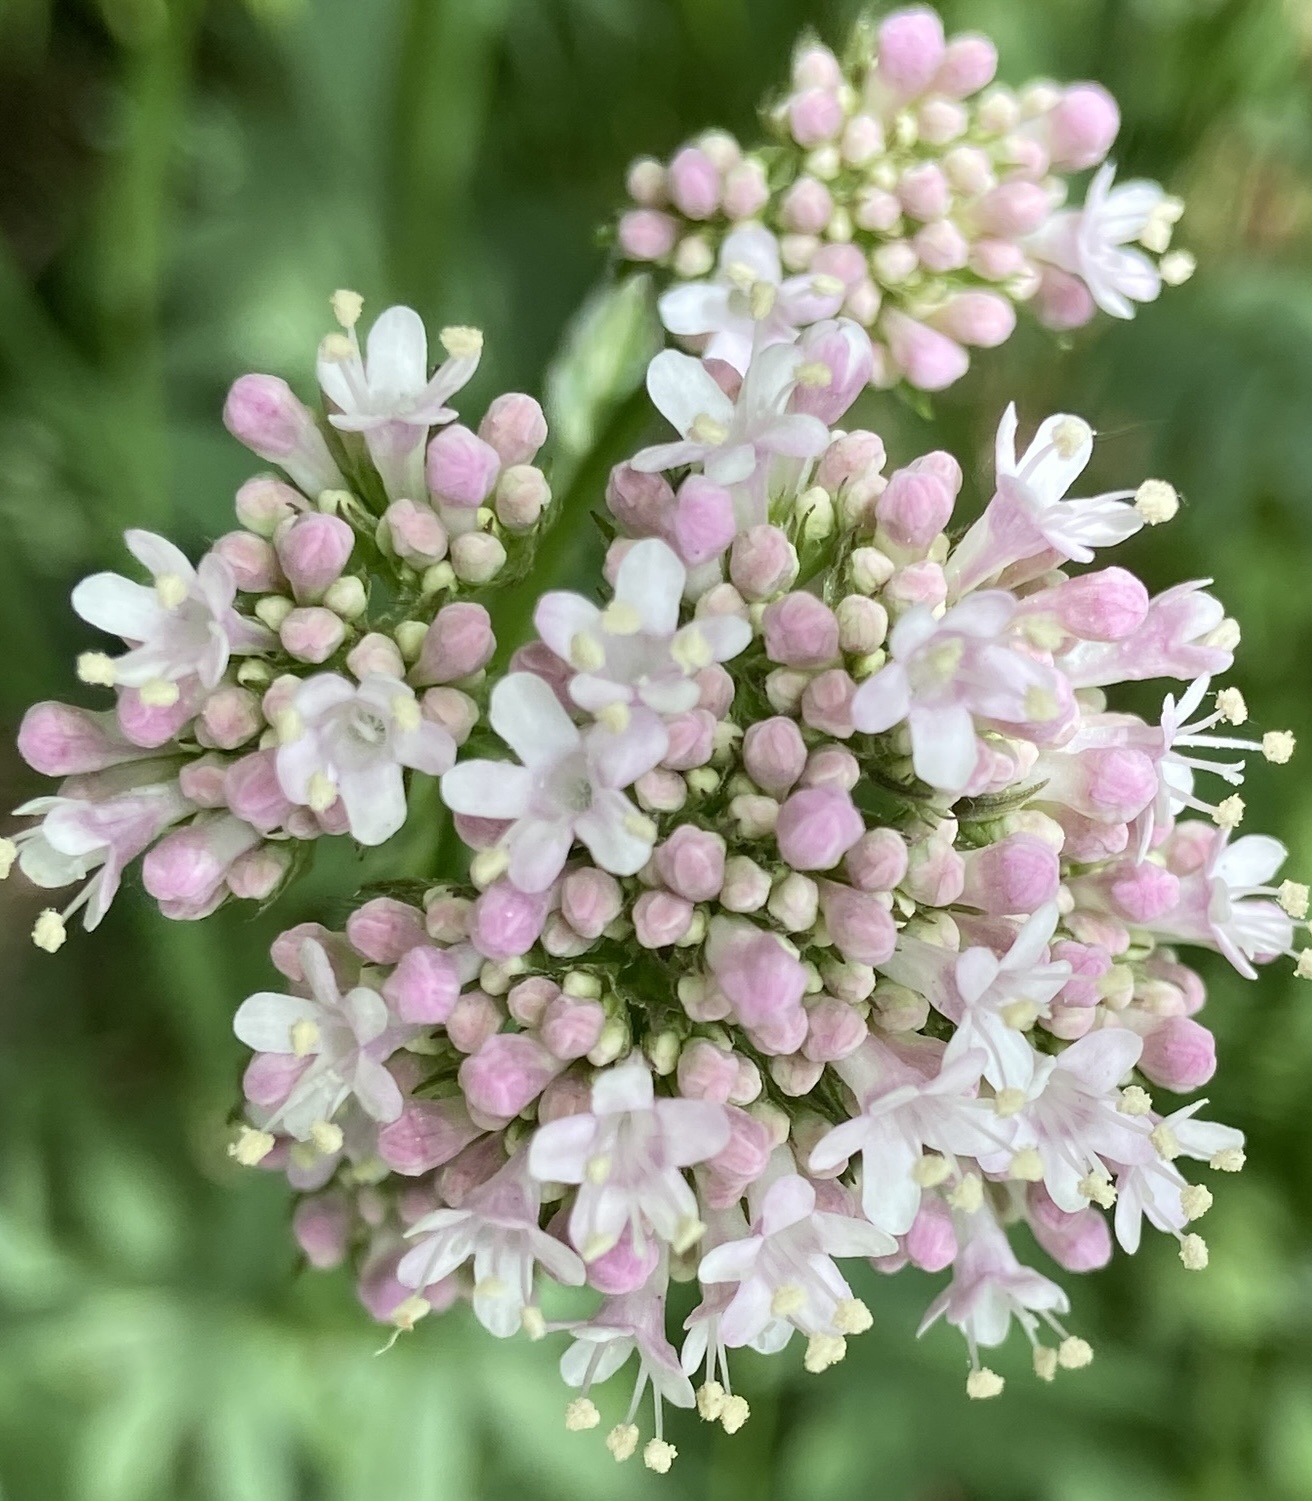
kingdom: Plantae
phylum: Tracheophyta
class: Magnoliopsida
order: Dipsacales
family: Caprifoliaceae
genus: Valeriana
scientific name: Valeriana sambucifolia
